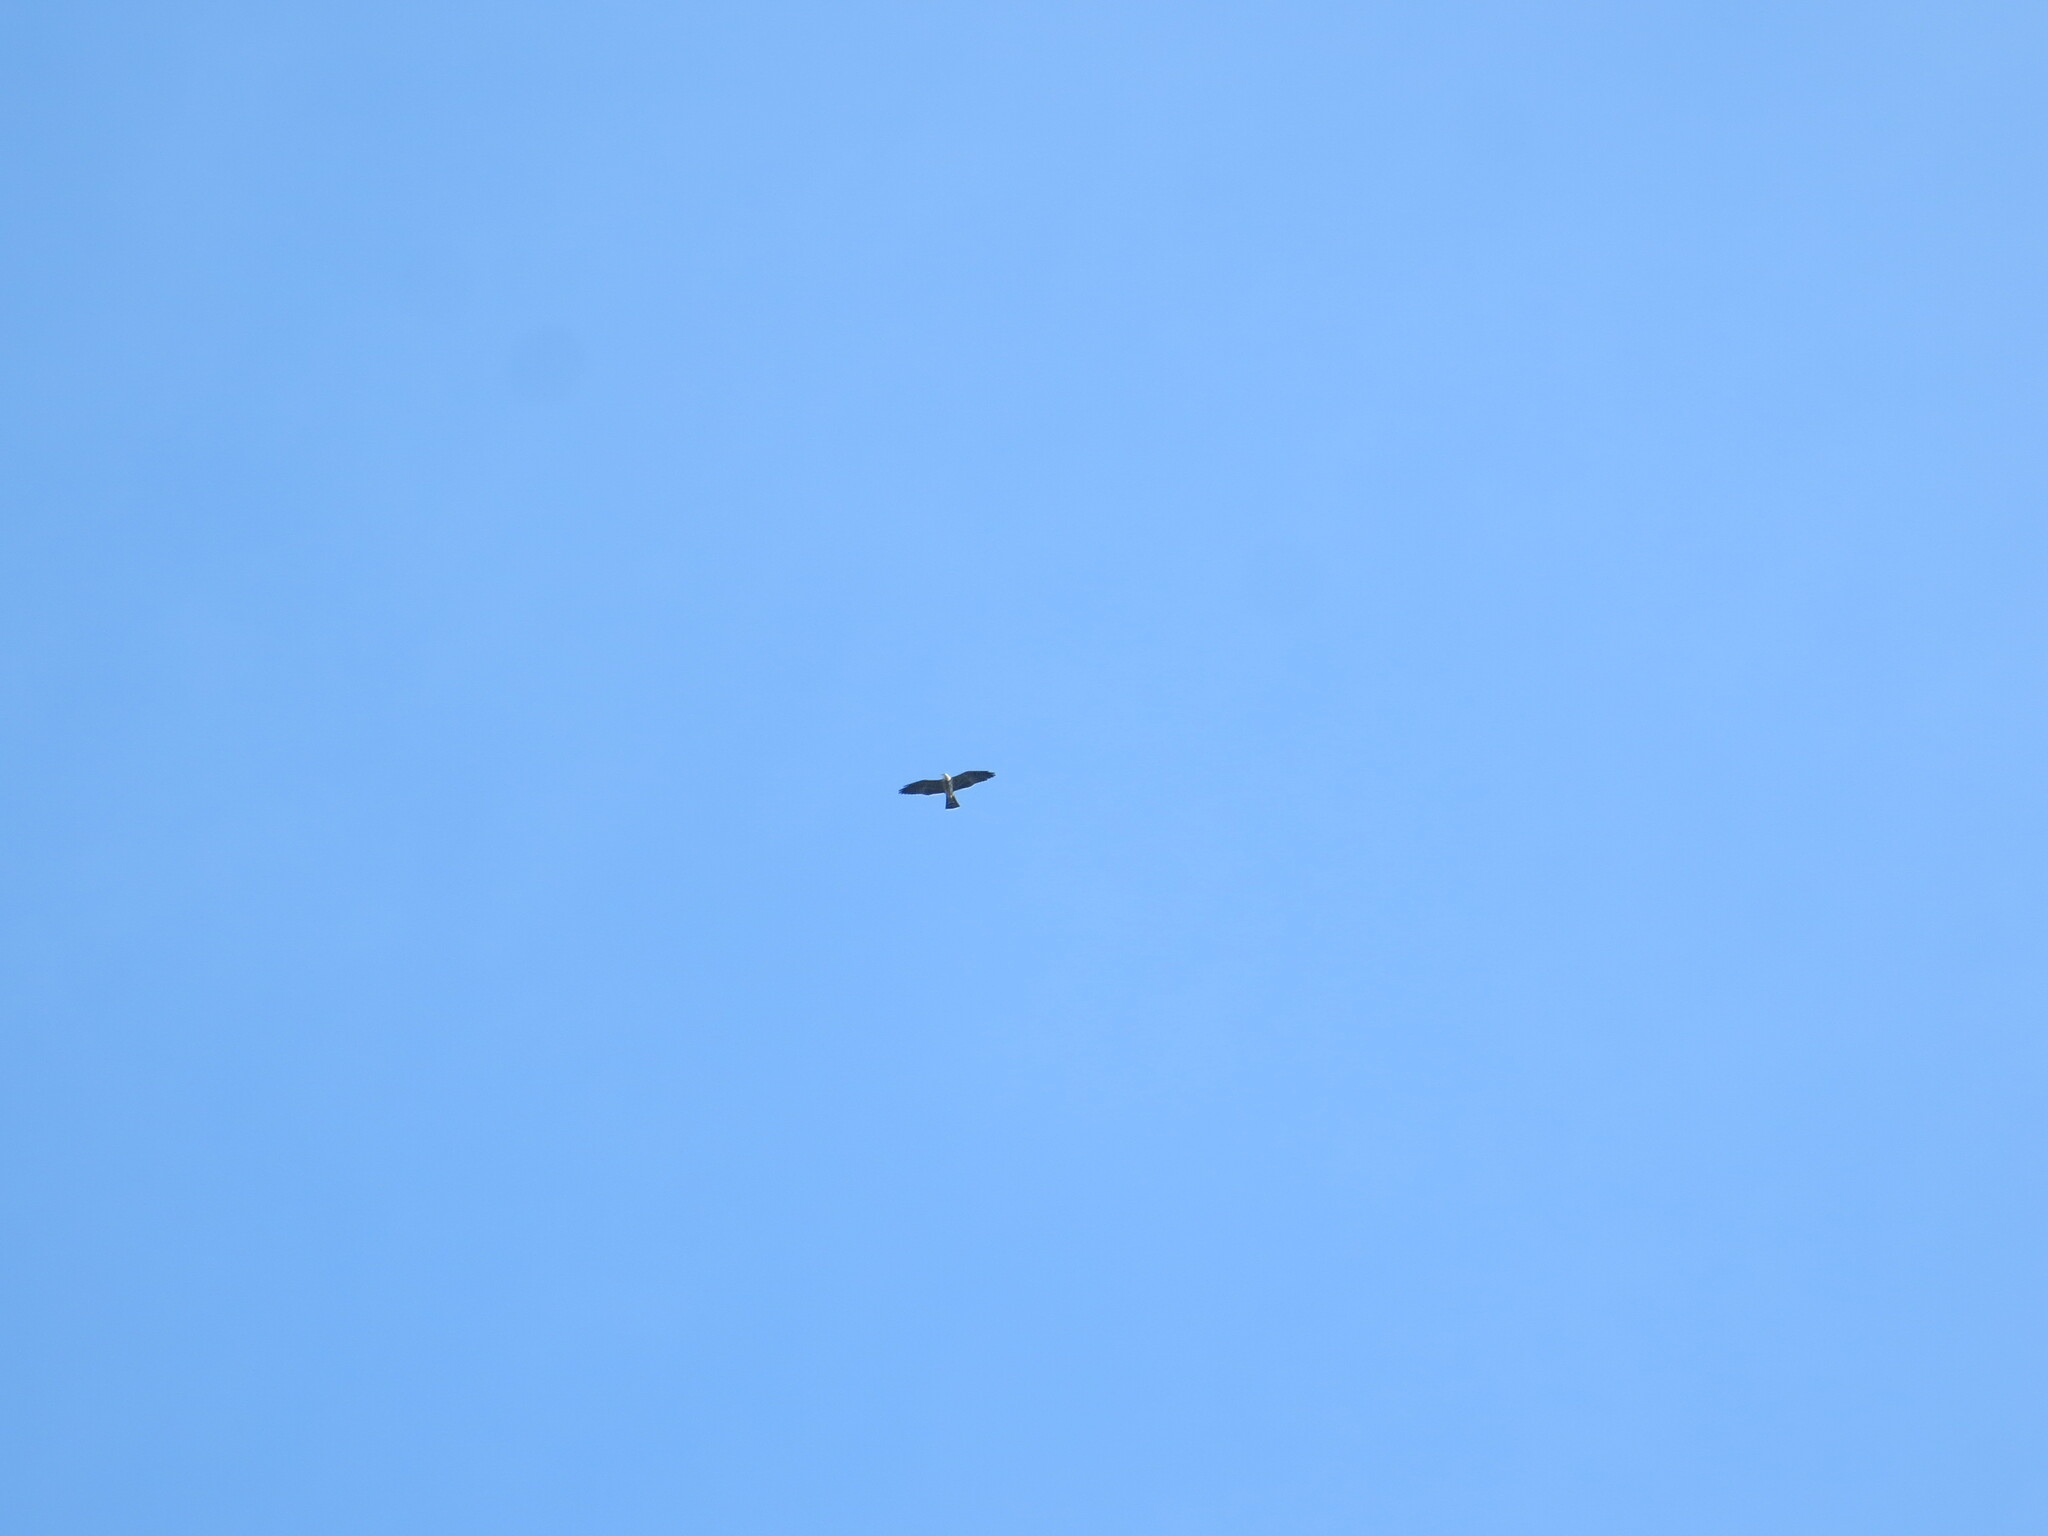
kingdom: Animalia
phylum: Chordata
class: Aves
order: Accipitriformes
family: Accipitridae
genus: Ictinia
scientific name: Ictinia mississippiensis
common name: Mississippi kite
